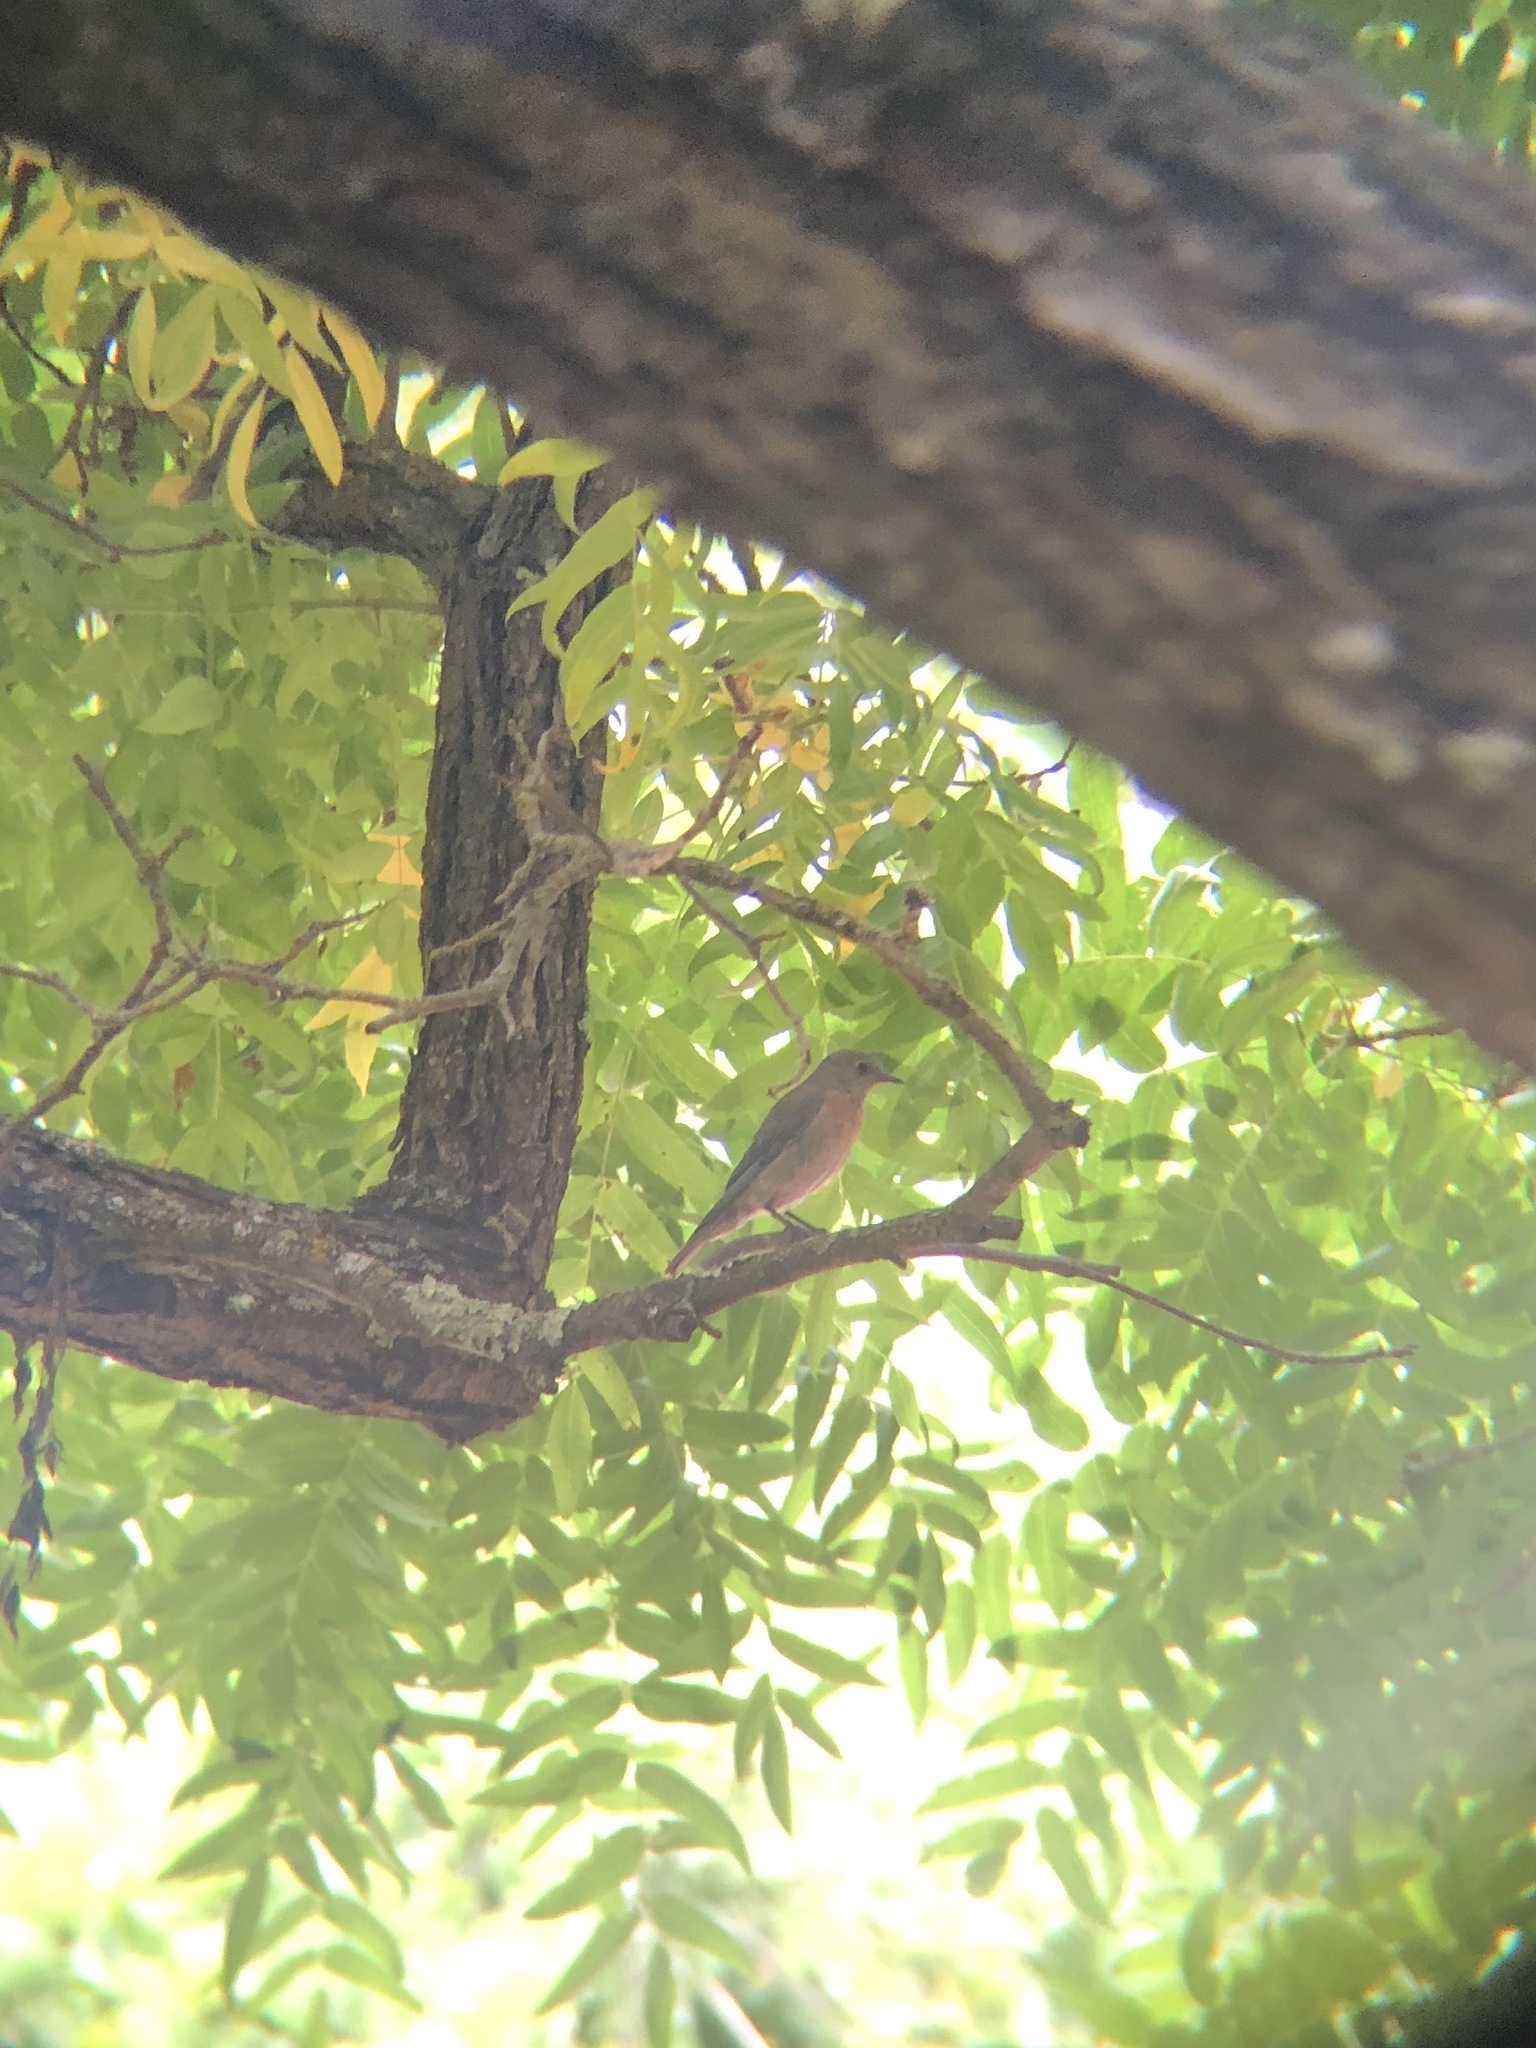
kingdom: Animalia
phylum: Chordata
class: Aves
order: Passeriformes
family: Turdidae
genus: Sialia
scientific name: Sialia mexicana
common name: Western bluebird
